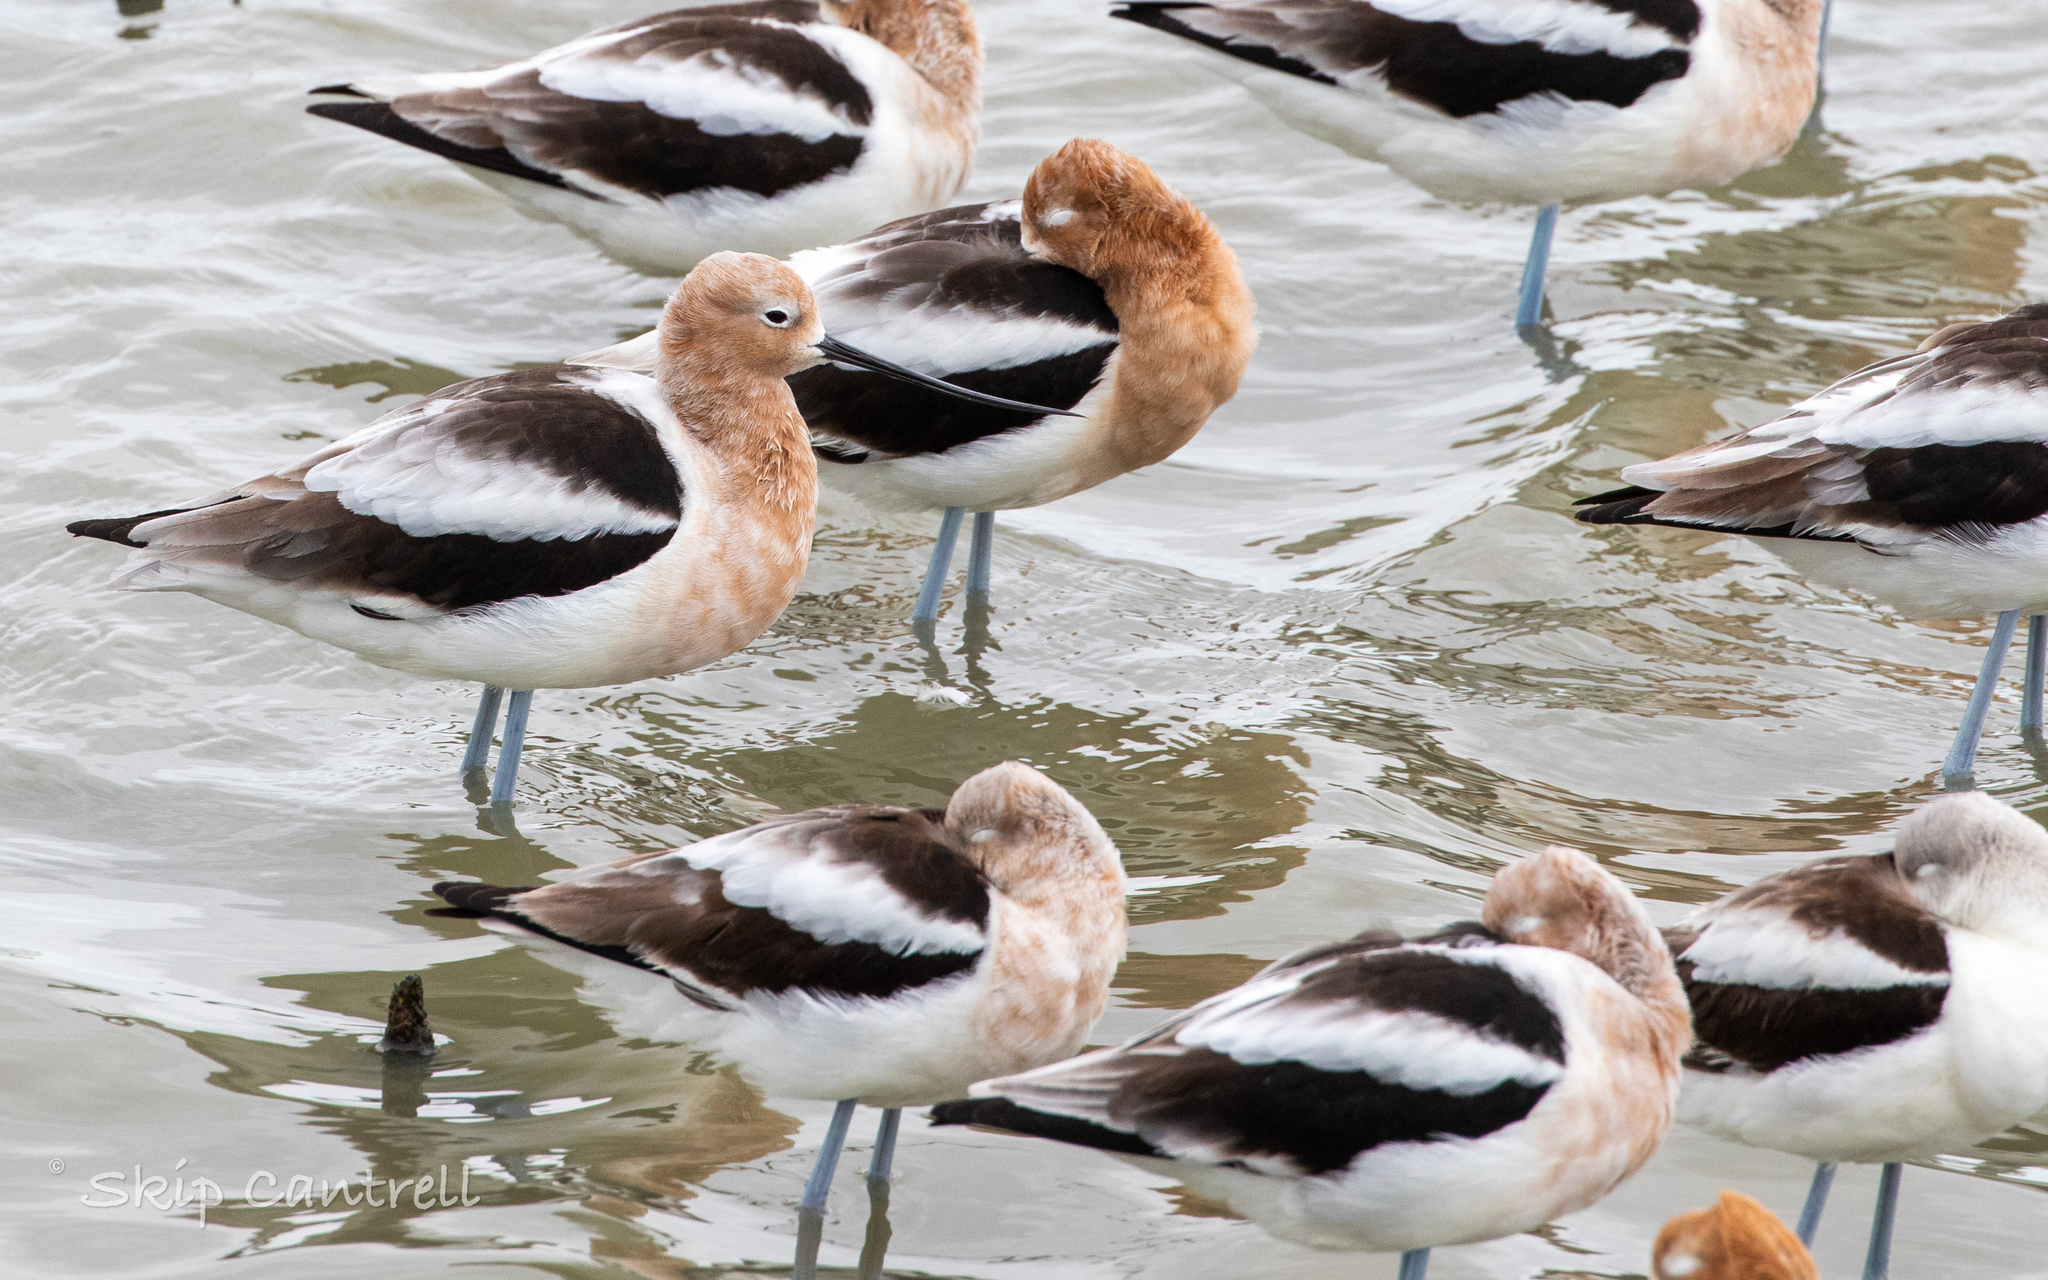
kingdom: Animalia
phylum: Chordata
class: Aves
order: Charadriiformes
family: Recurvirostridae
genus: Recurvirostra
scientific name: Recurvirostra americana
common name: American avocet
